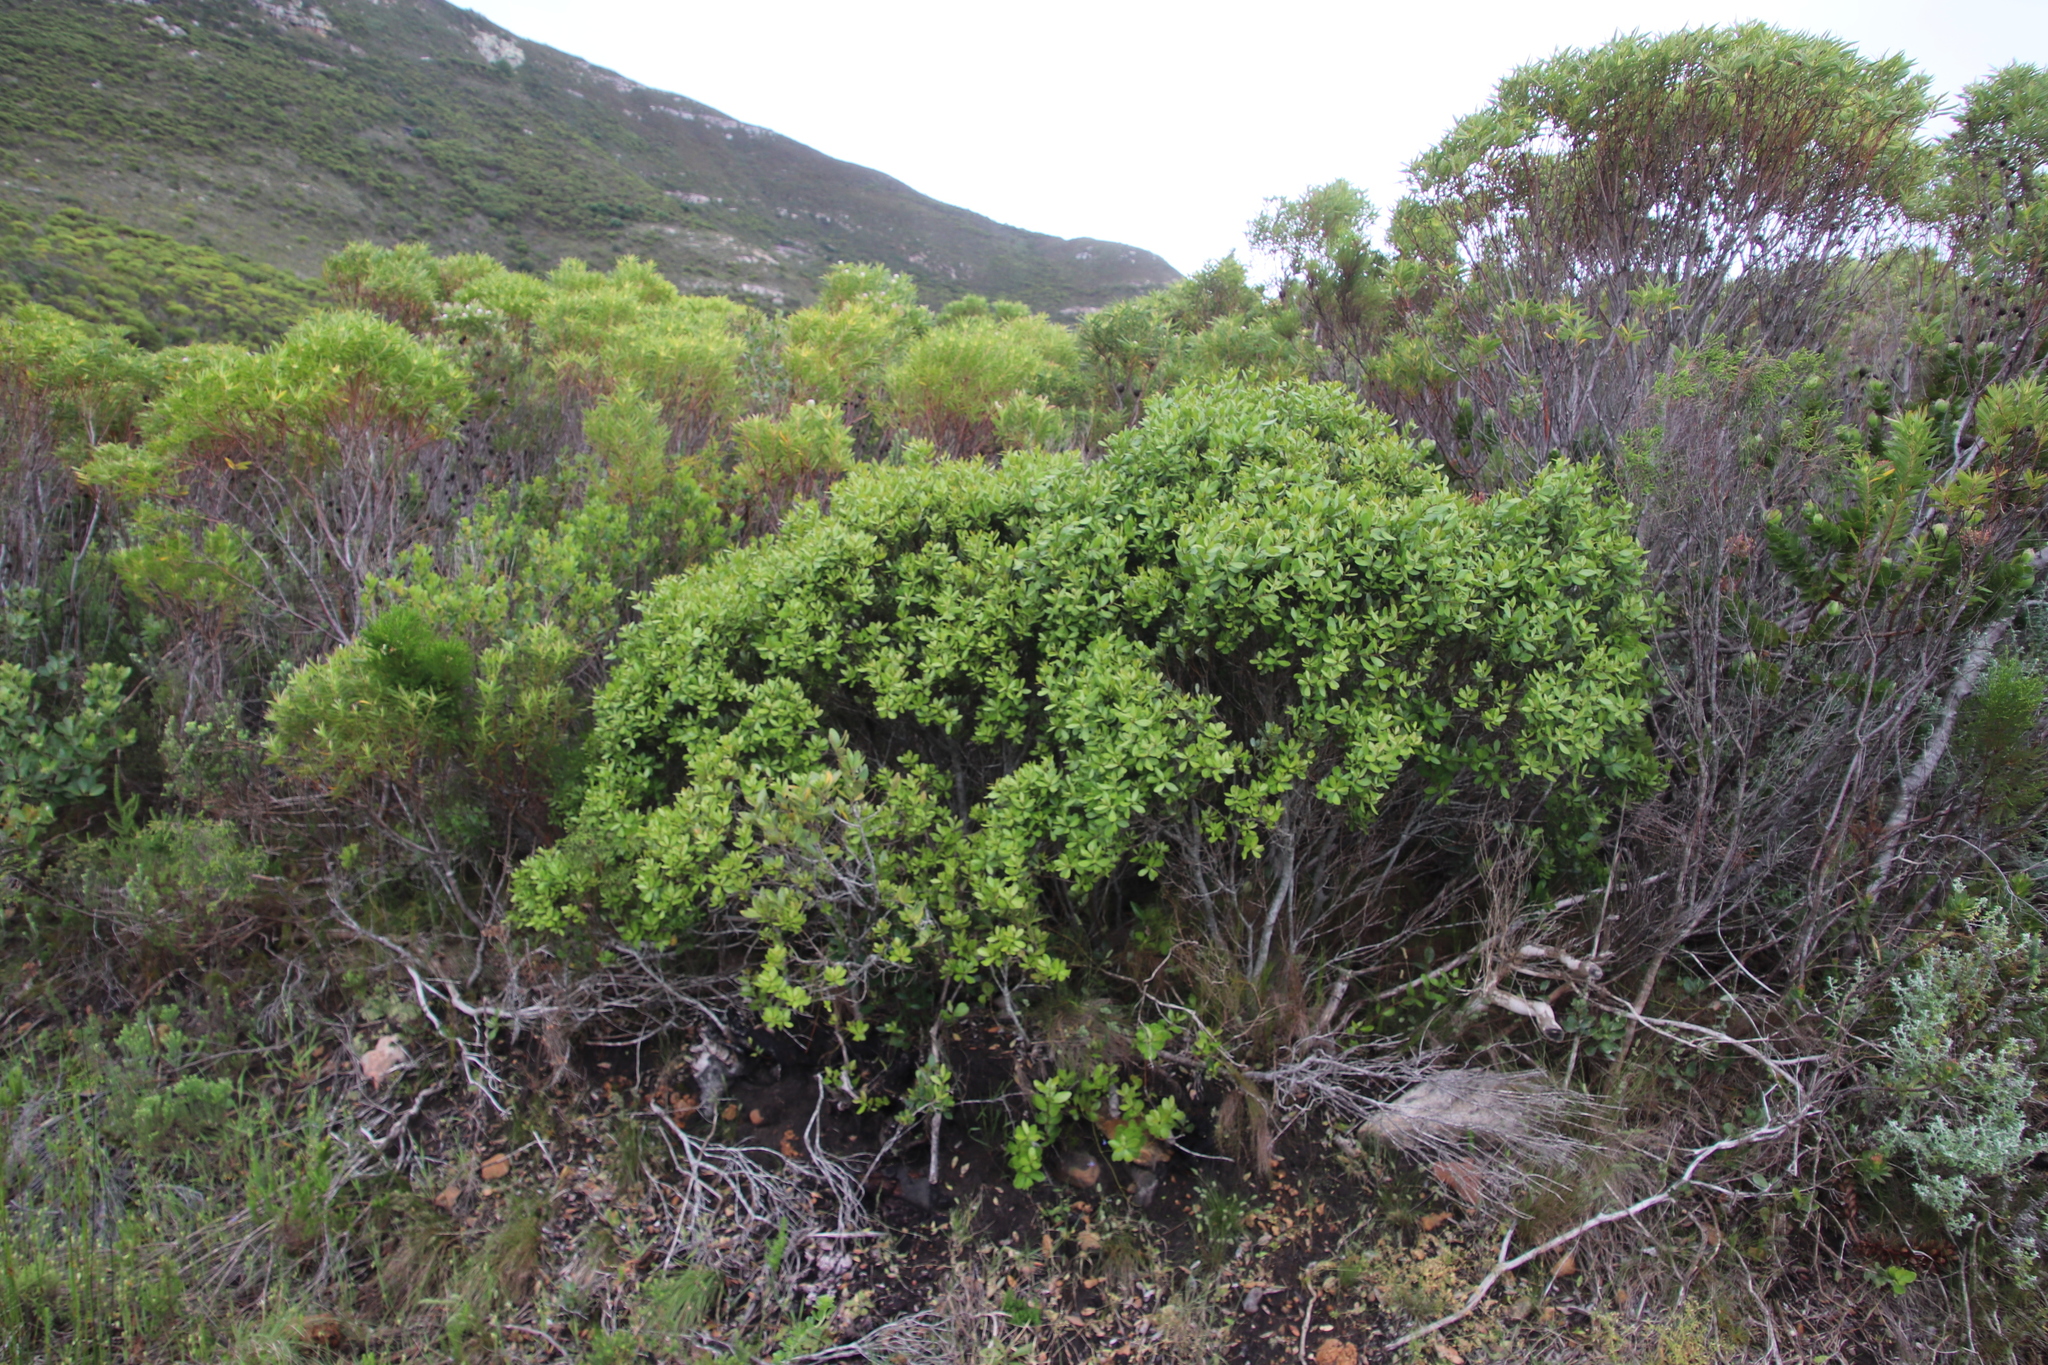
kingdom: Plantae
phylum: Tracheophyta
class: Magnoliopsida
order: Ericales
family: Ebenaceae
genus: Euclea
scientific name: Euclea racemosa
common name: Dune guarri
